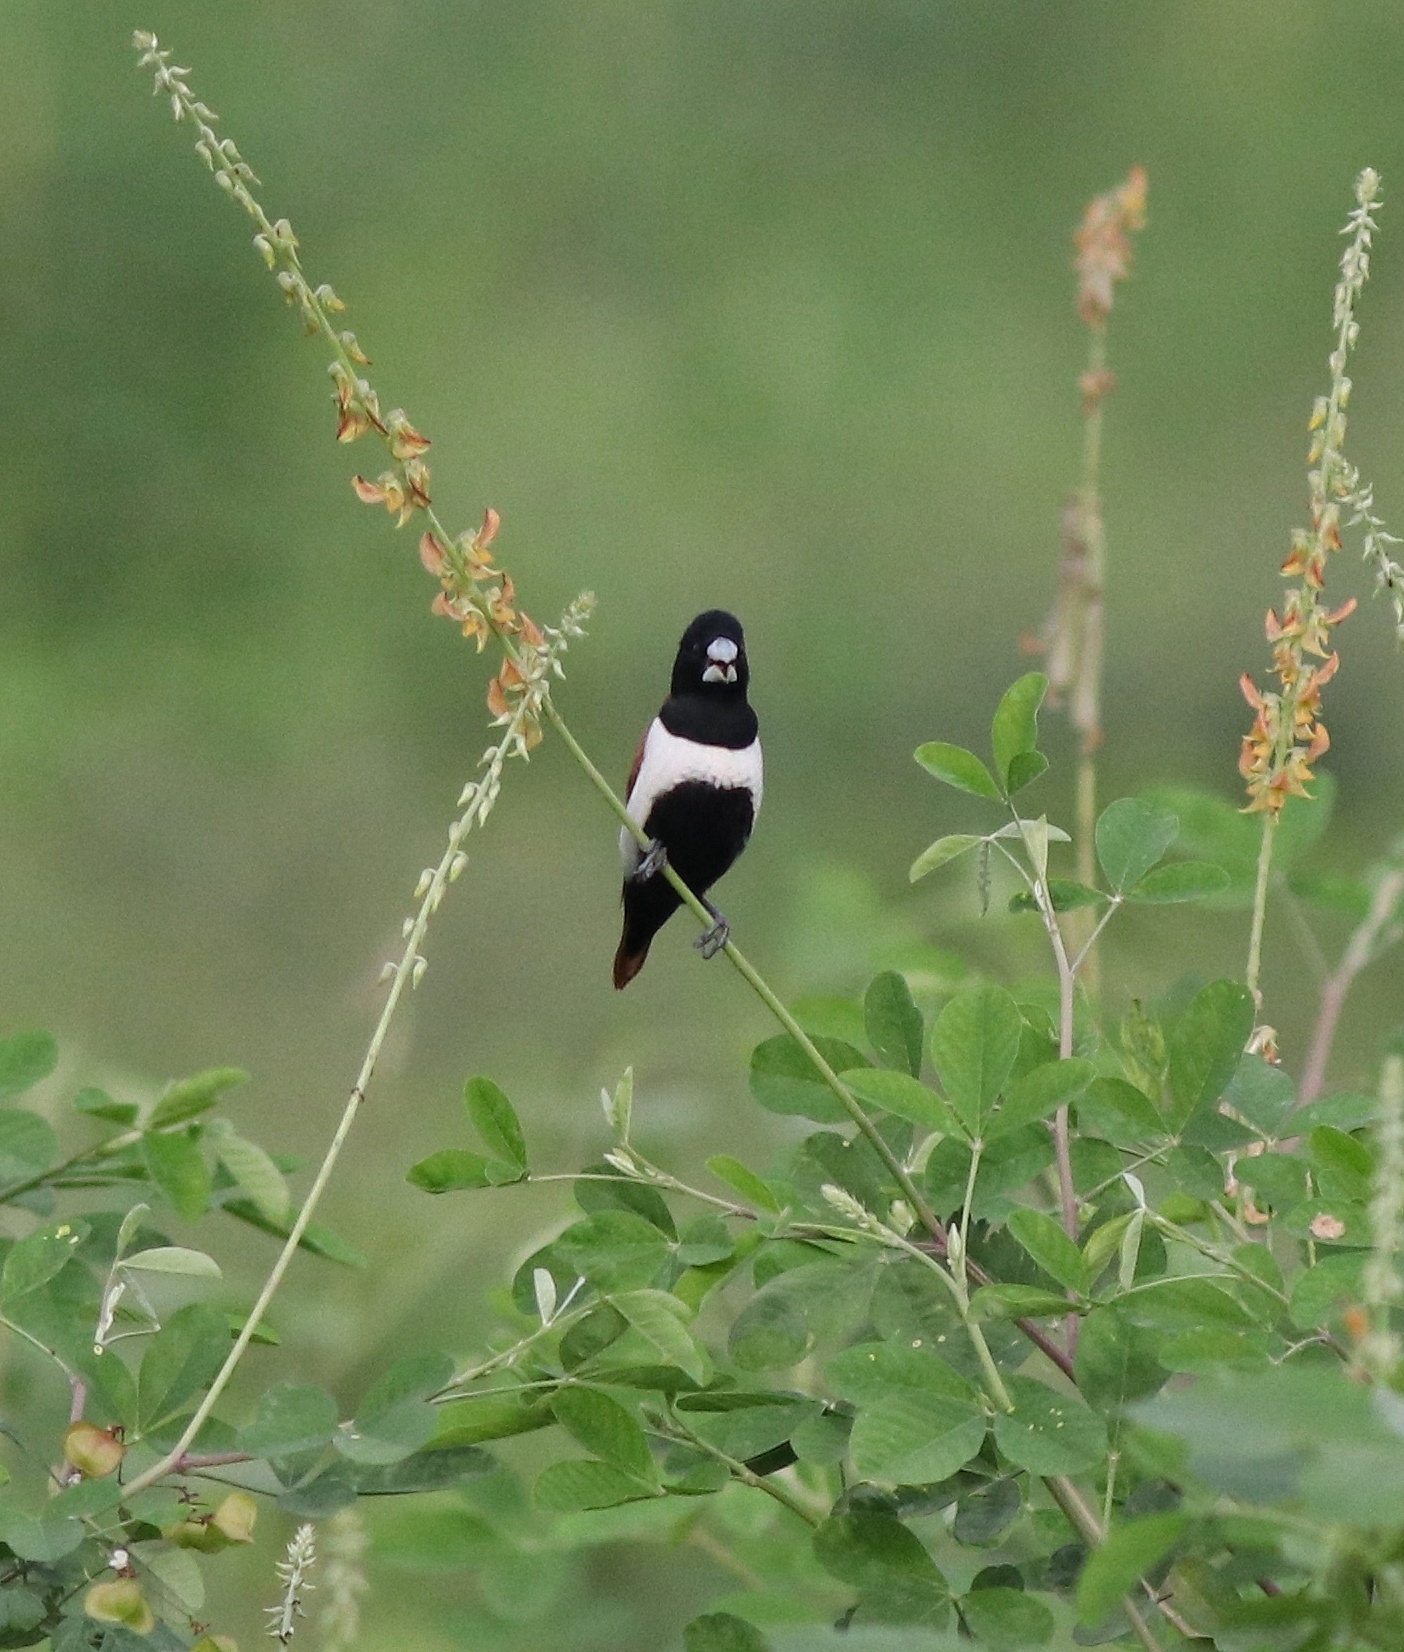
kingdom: Animalia
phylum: Chordata
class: Aves
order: Passeriformes
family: Estrildidae
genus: Lonchura
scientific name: Lonchura malacca
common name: Tricolored munia
